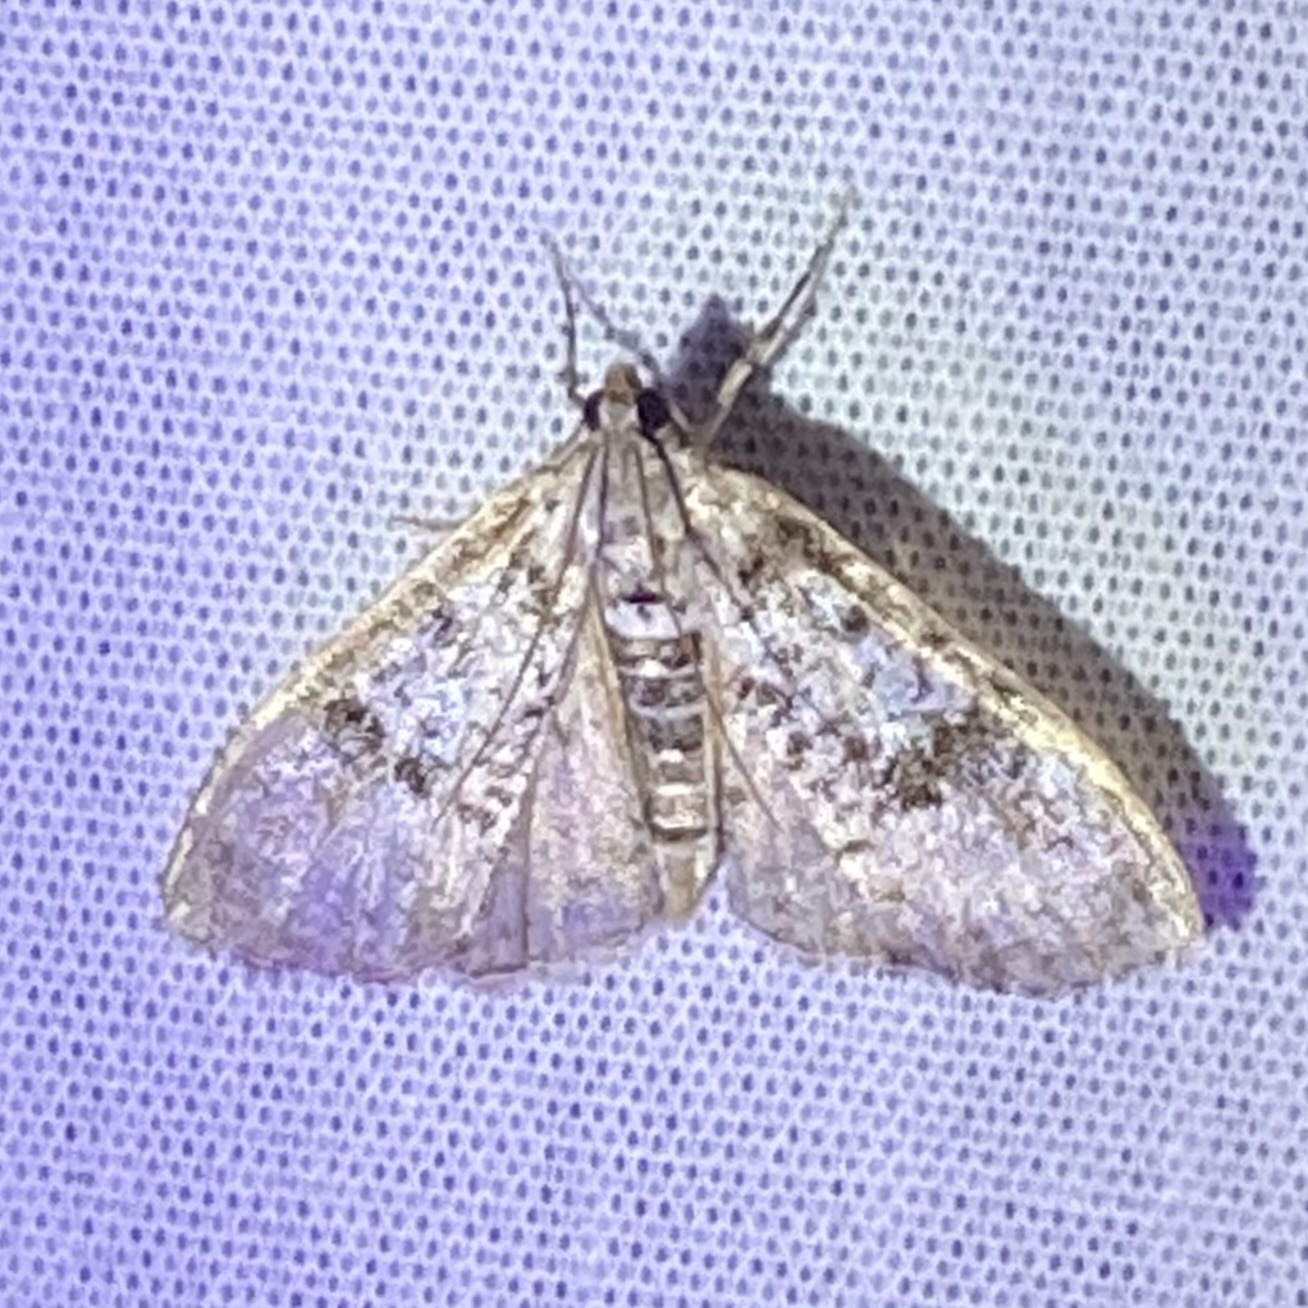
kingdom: Animalia
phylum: Arthropoda
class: Insecta
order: Lepidoptera
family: Crambidae
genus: Palpita
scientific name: Palpita magniferalis
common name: Splendid palpita moth
